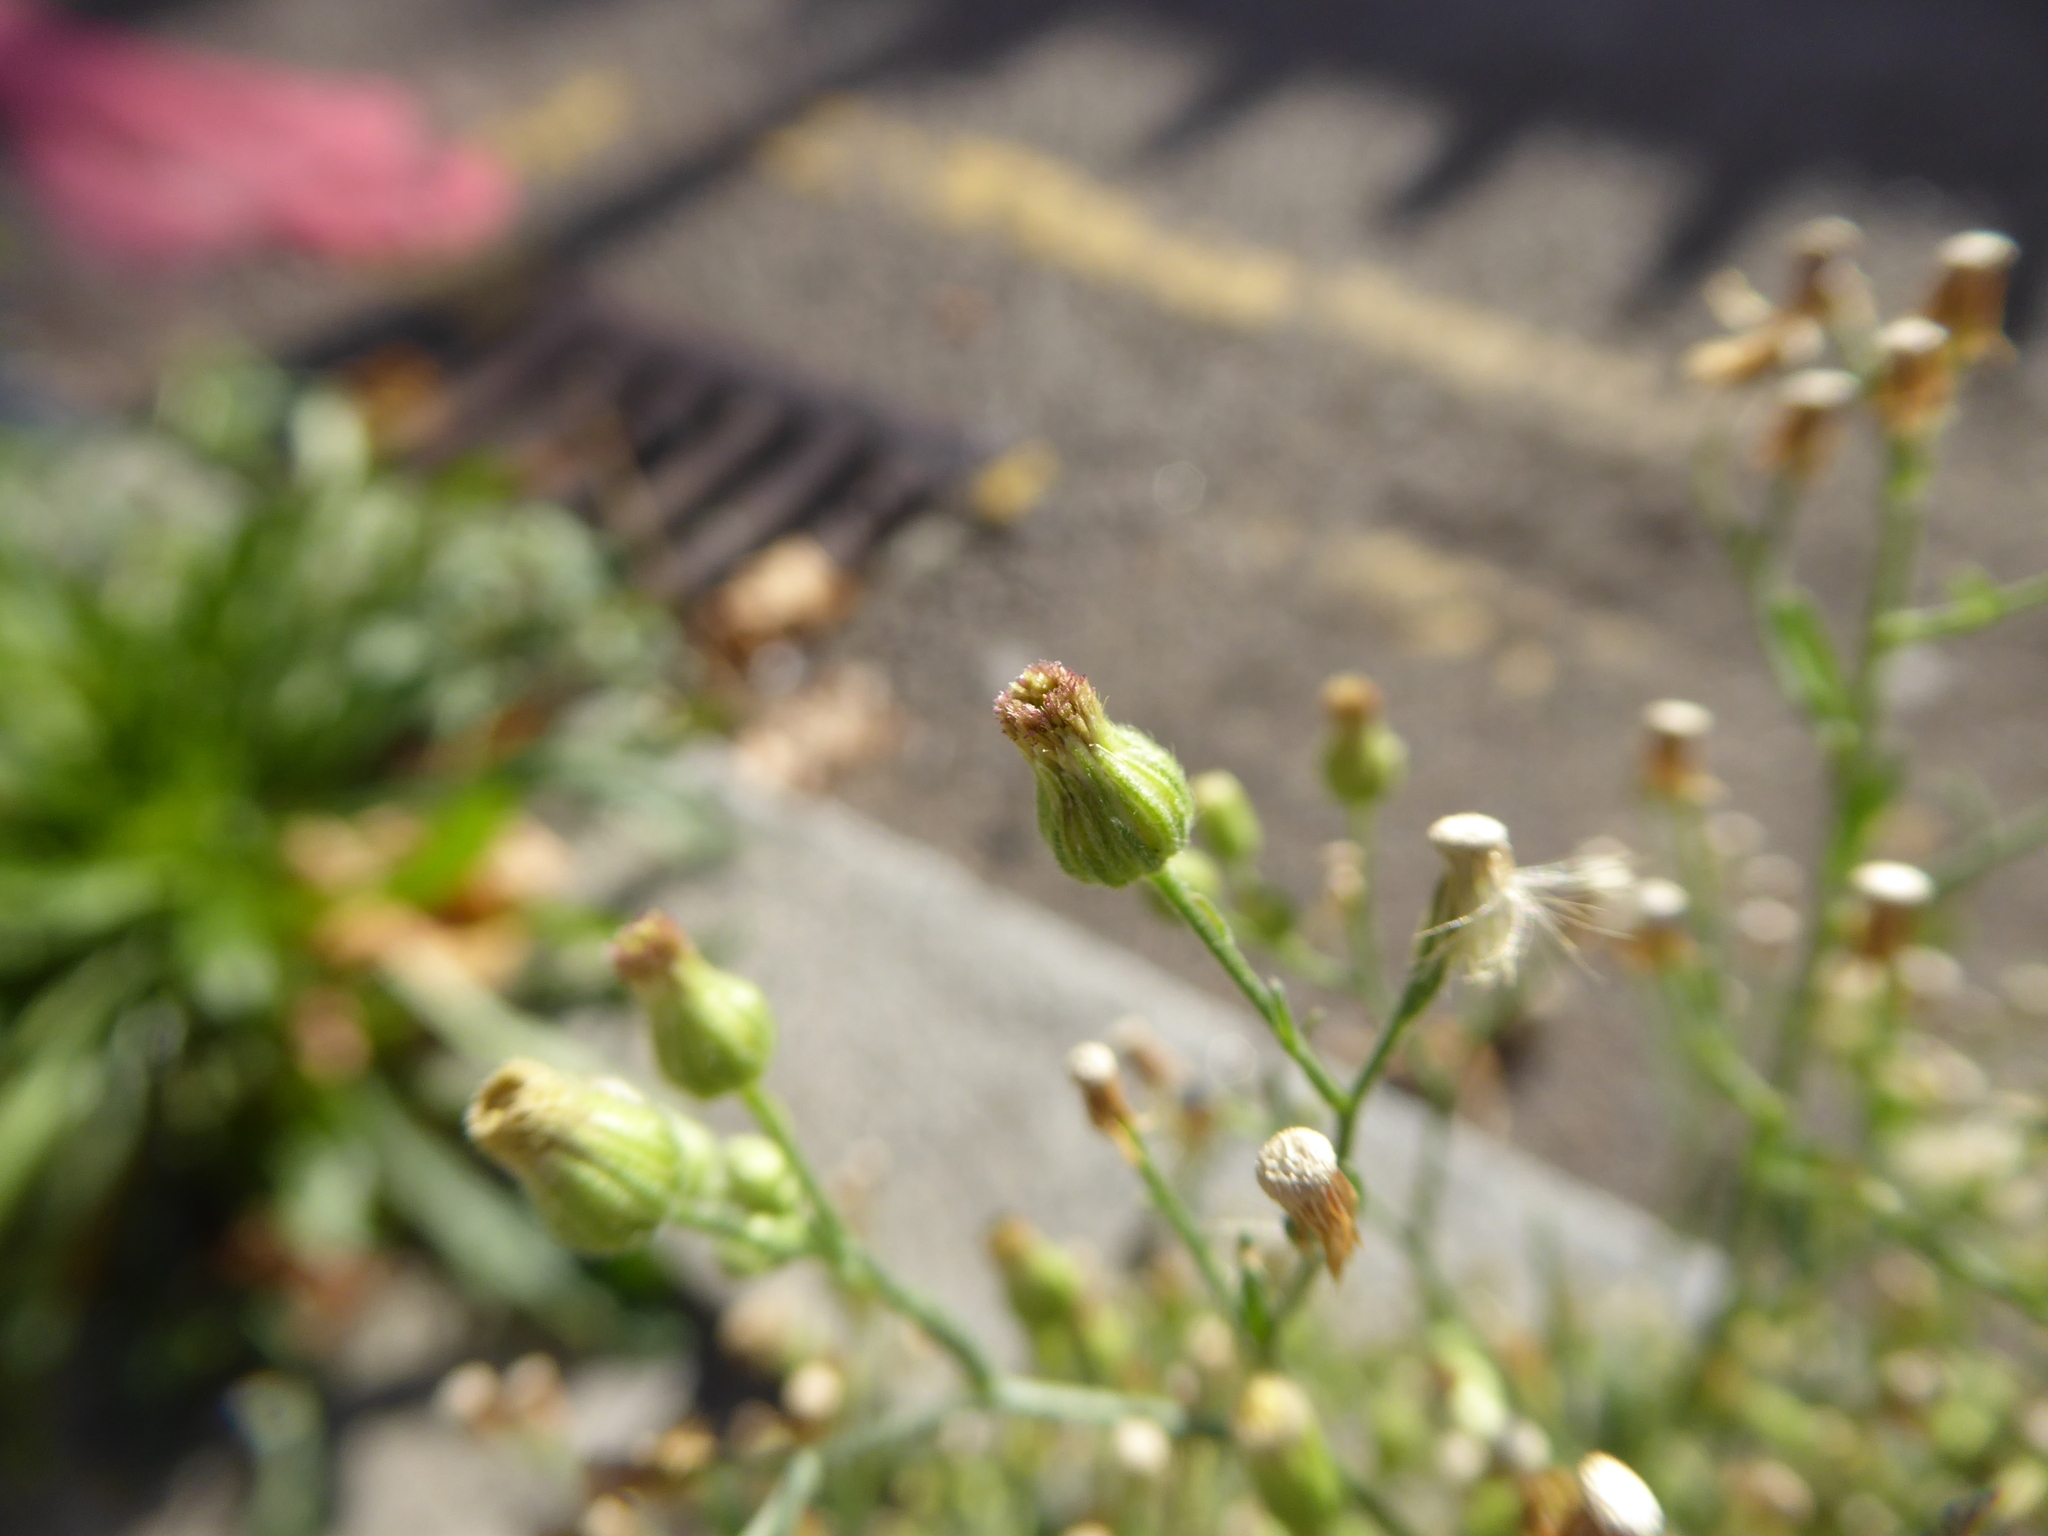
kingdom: Plantae
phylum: Tracheophyta
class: Magnoliopsida
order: Asterales
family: Asteraceae
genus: Erigeron
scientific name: Erigeron sumatrensis
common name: Daisy
